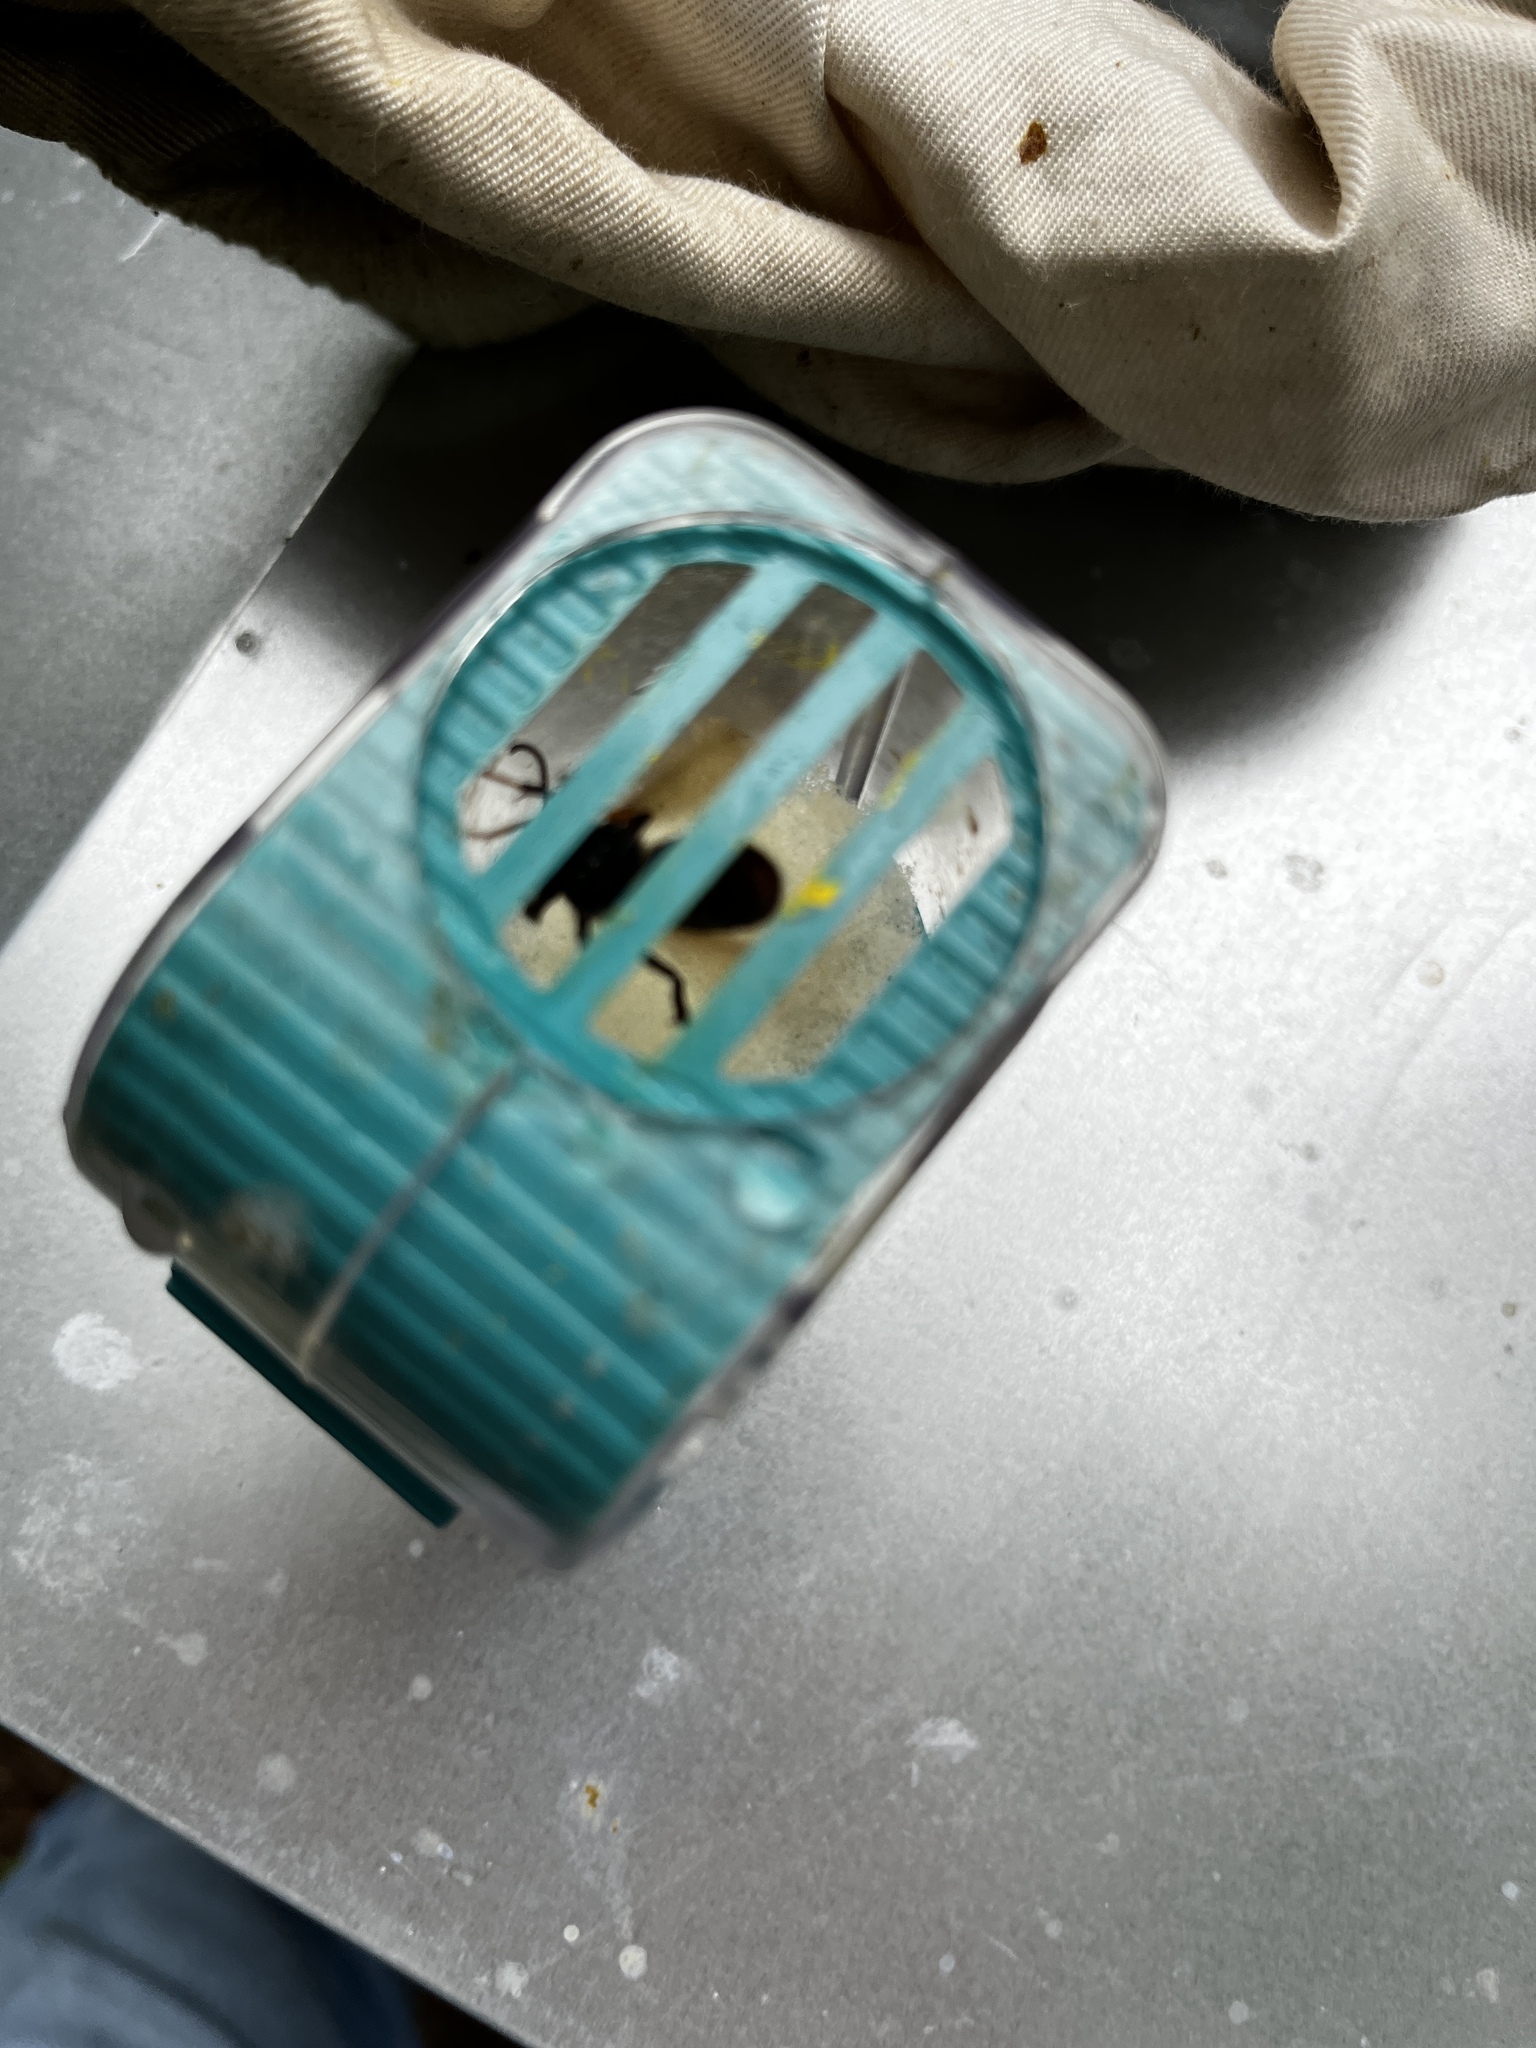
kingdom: Animalia
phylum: Arthropoda
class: Insecta
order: Hymenoptera
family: Vespidae
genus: Vespa
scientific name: Vespa velutina
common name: Asian hornet
